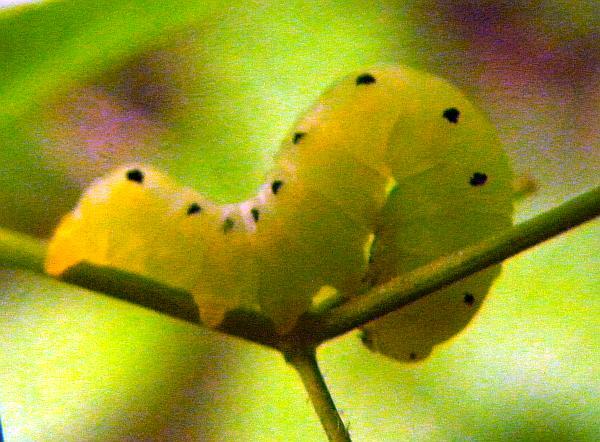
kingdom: Animalia
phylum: Arthropoda
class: Insecta
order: Lepidoptera
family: Erebidae
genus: Calyptra
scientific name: Calyptra canadensis
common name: Canadian owlet
